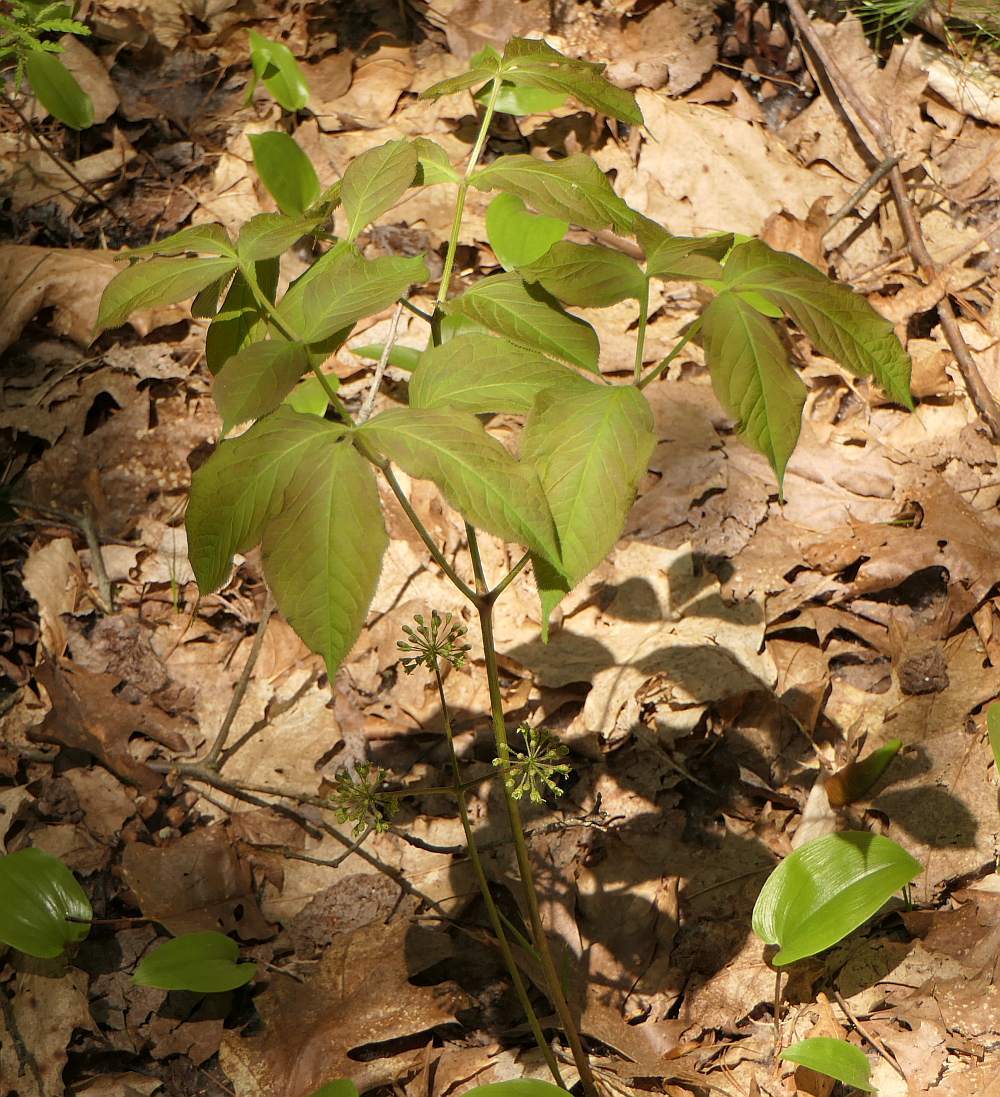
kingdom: Plantae
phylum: Tracheophyta
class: Magnoliopsida
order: Apiales
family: Araliaceae
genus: Aralia
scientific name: Aralia nudicaulis
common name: Wild sarsaparilla
